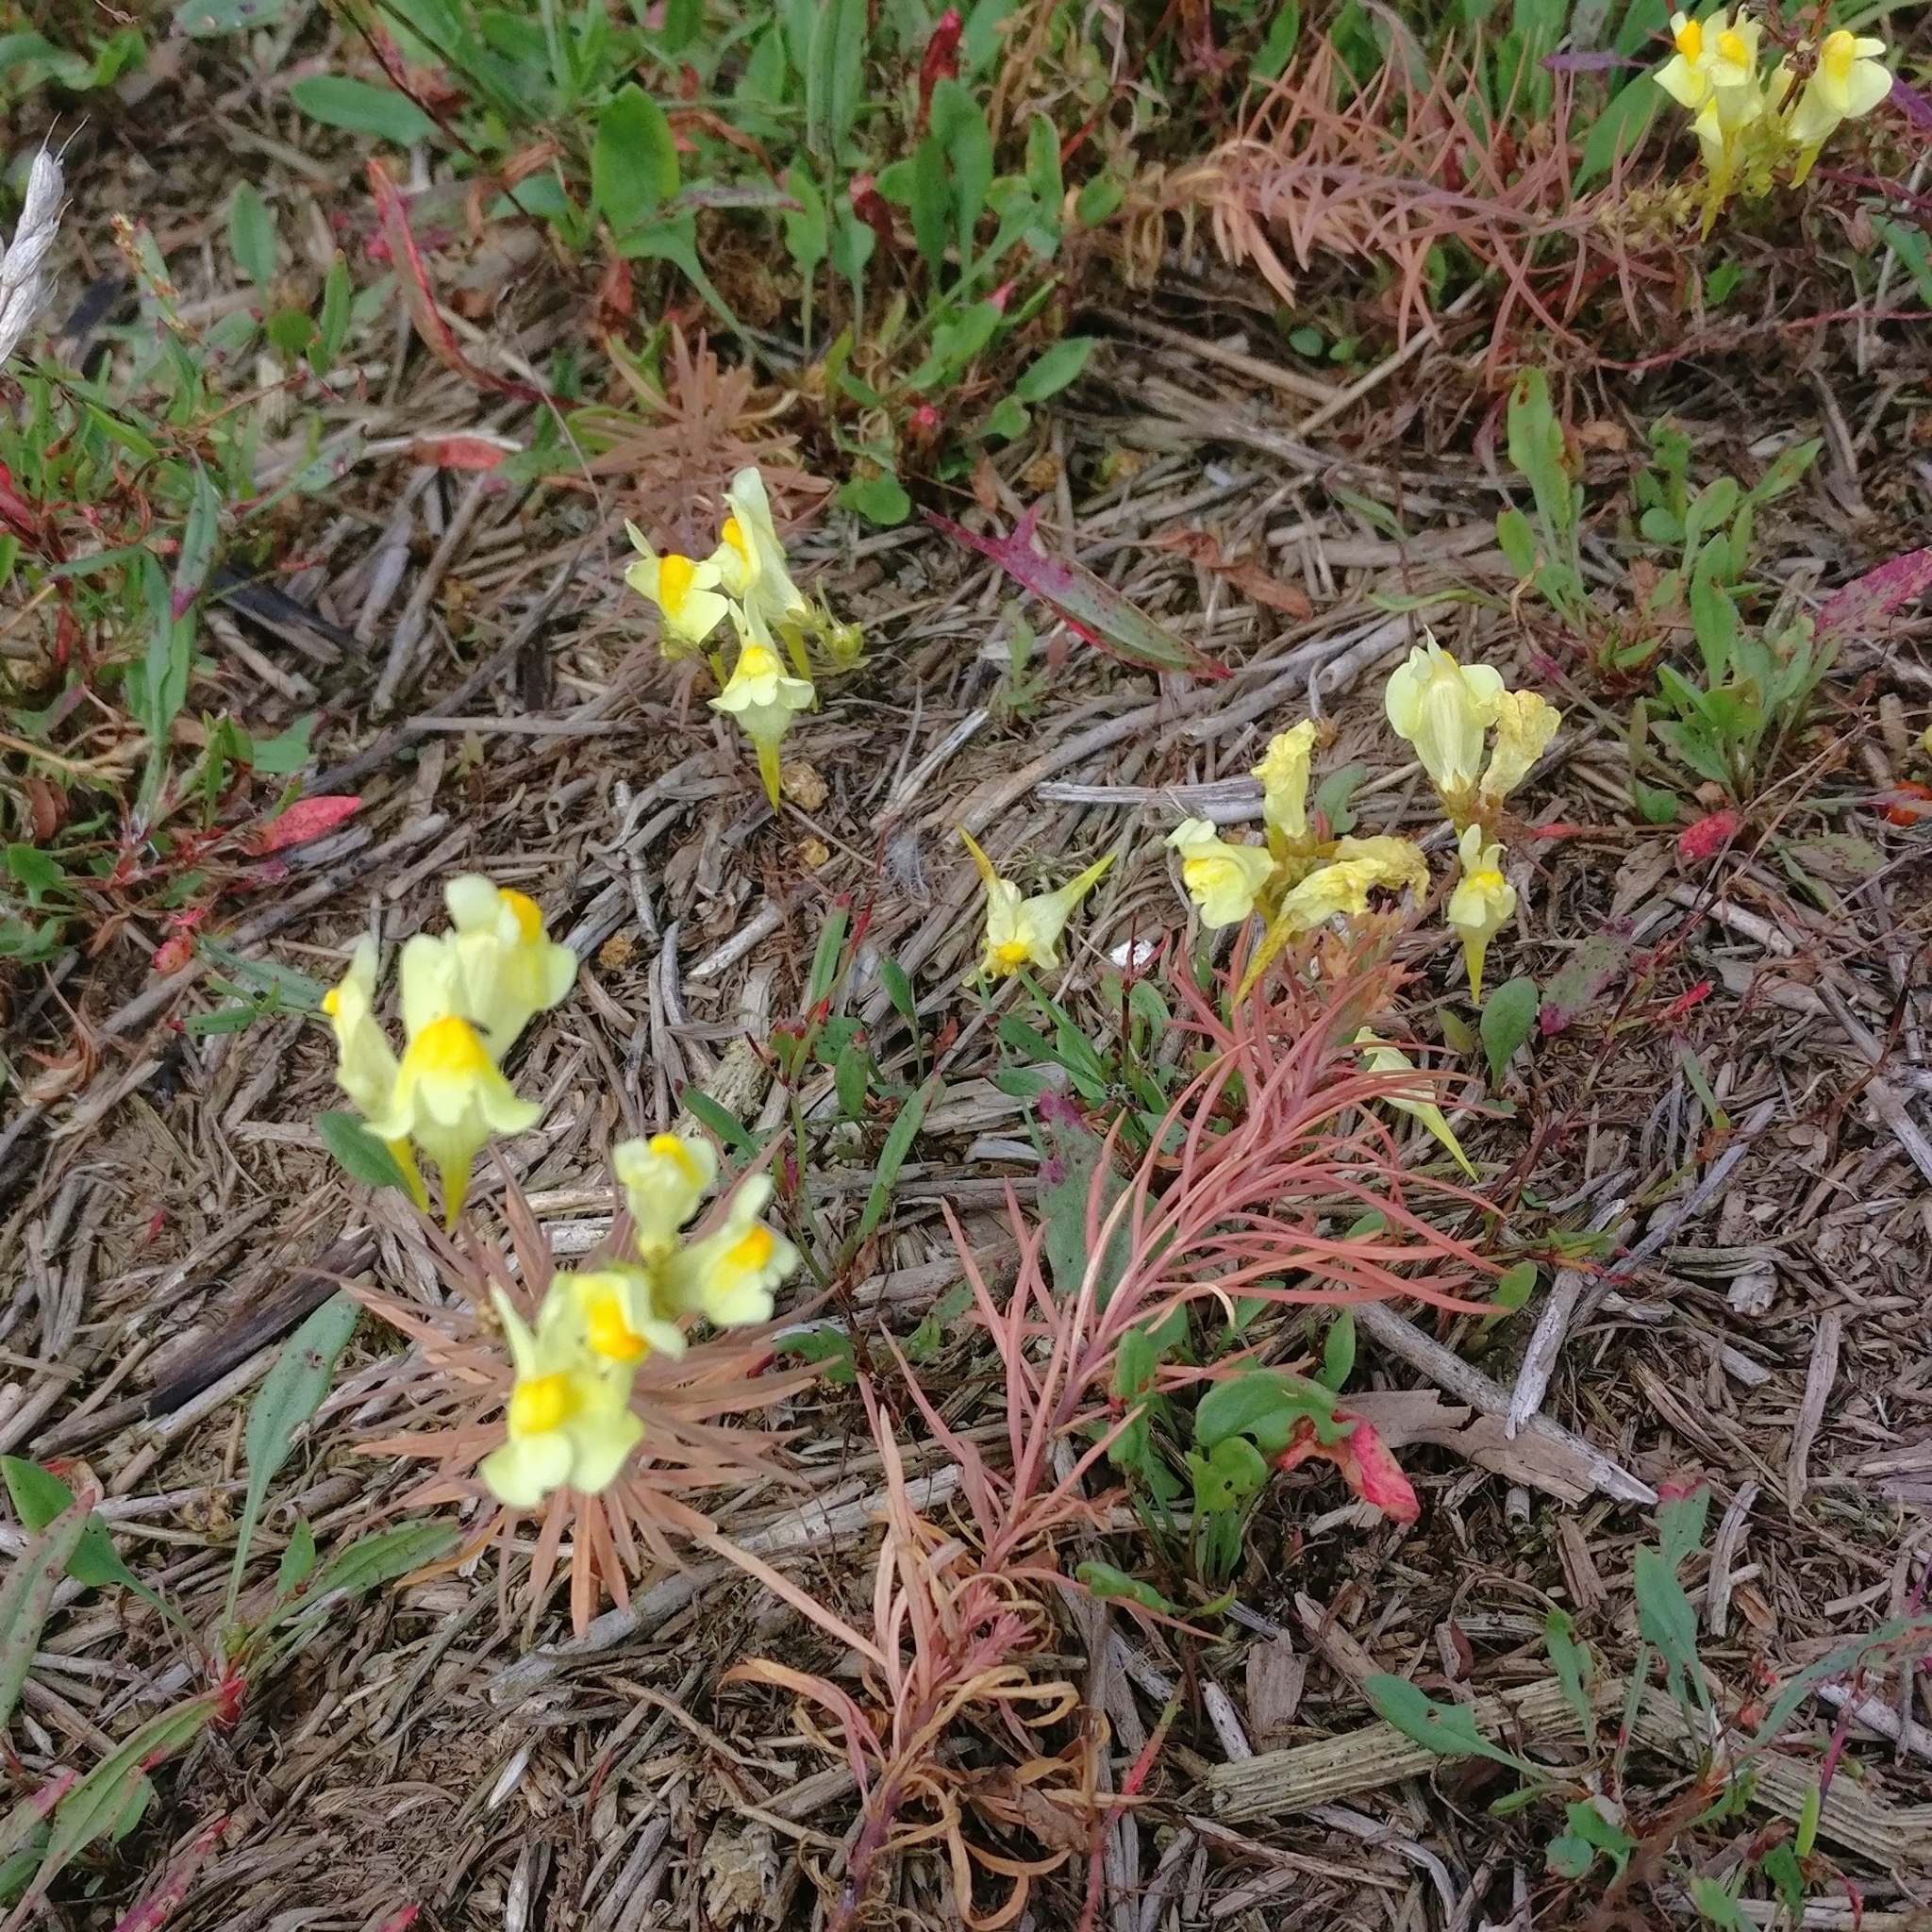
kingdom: Plantae
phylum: Tracheophyta
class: Magnoliopsida
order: Lamiales
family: Plantaginaceae
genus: Linaria
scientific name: Linaria vulgaris
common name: Butter and eggs
